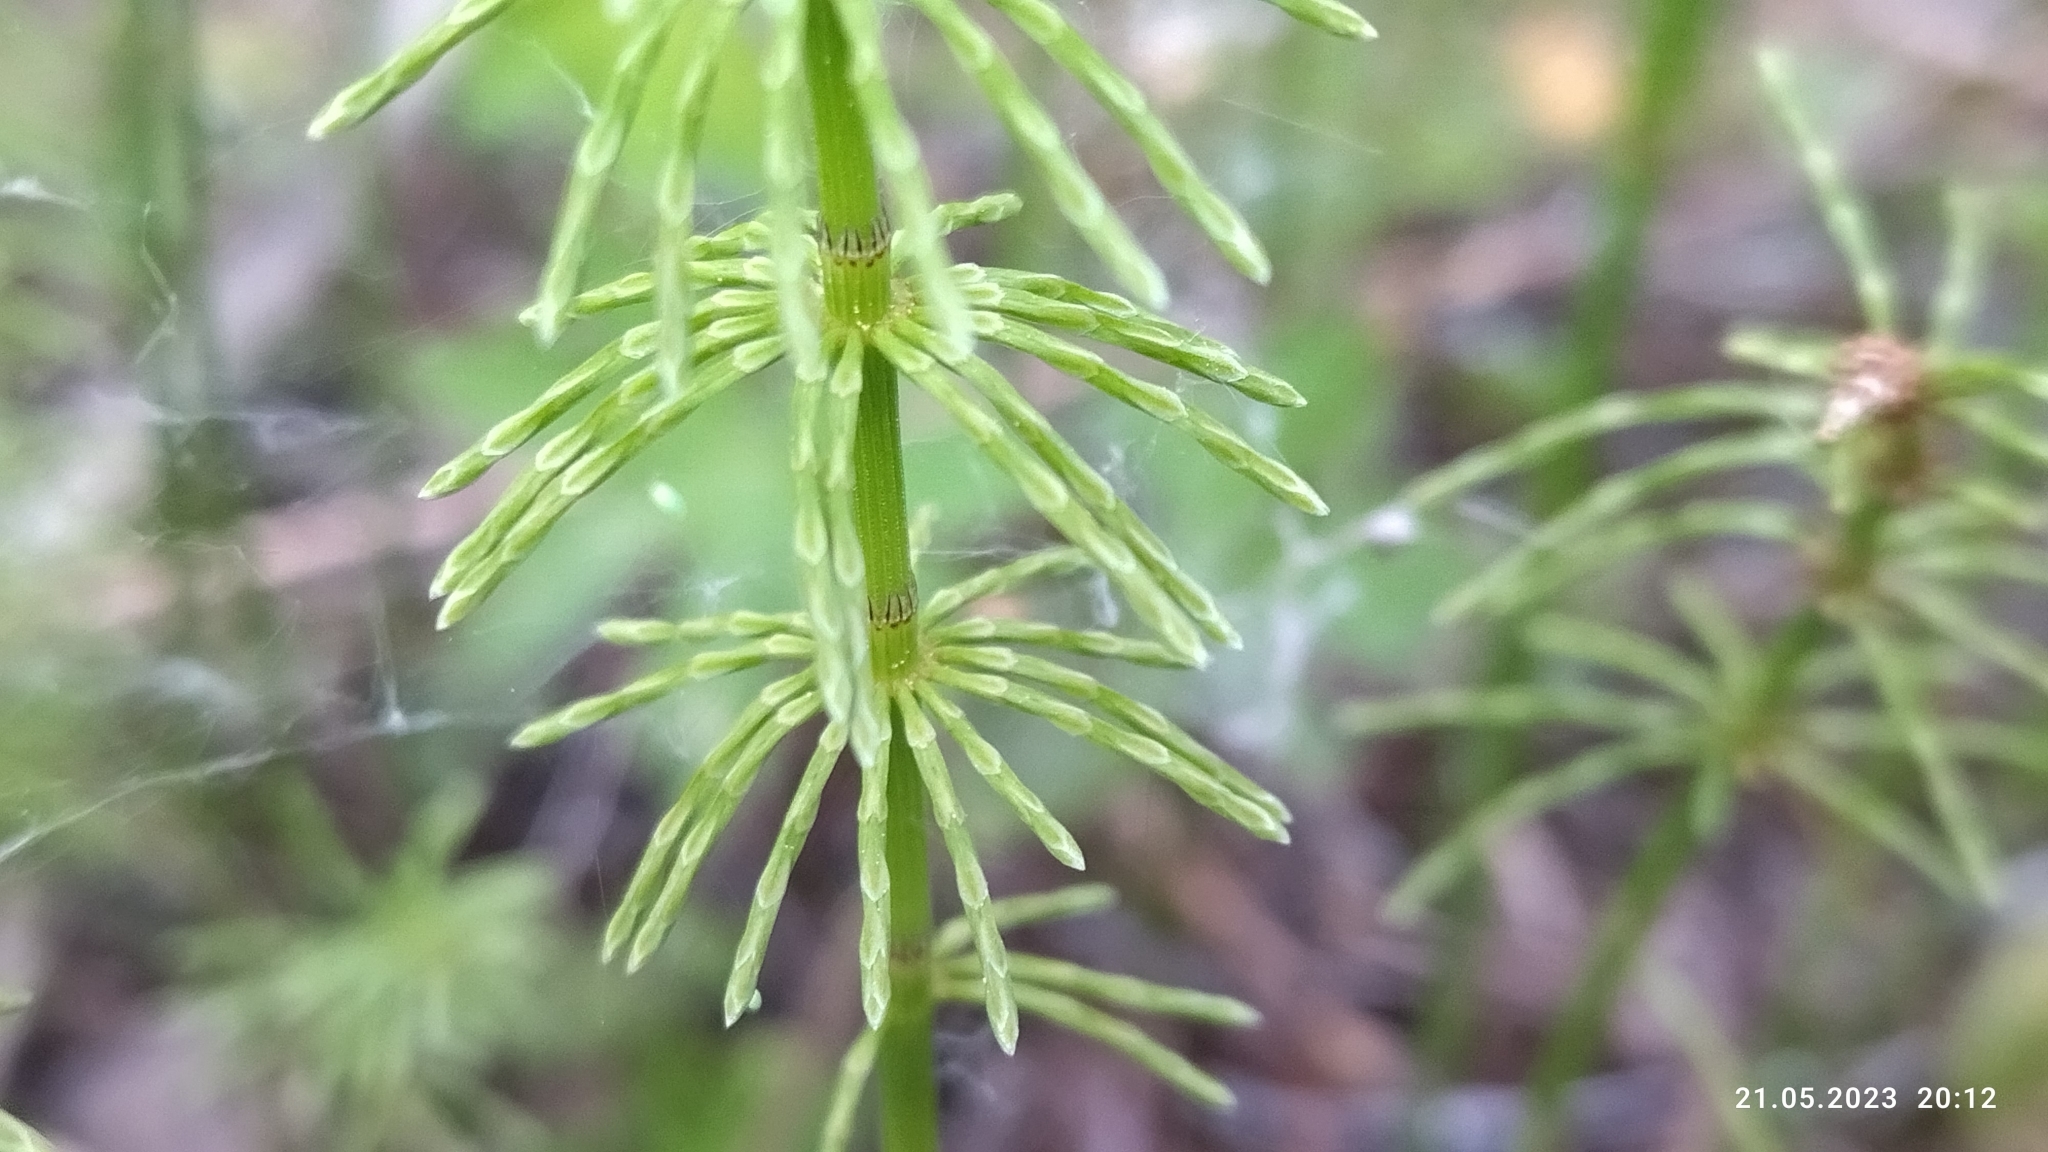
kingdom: Plantae
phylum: Tracheophyta
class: Polypodiopsida
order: Equisetales
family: Equisetaceae
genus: Equisetum
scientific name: Equisetum pratense
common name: Meadow horsetail
